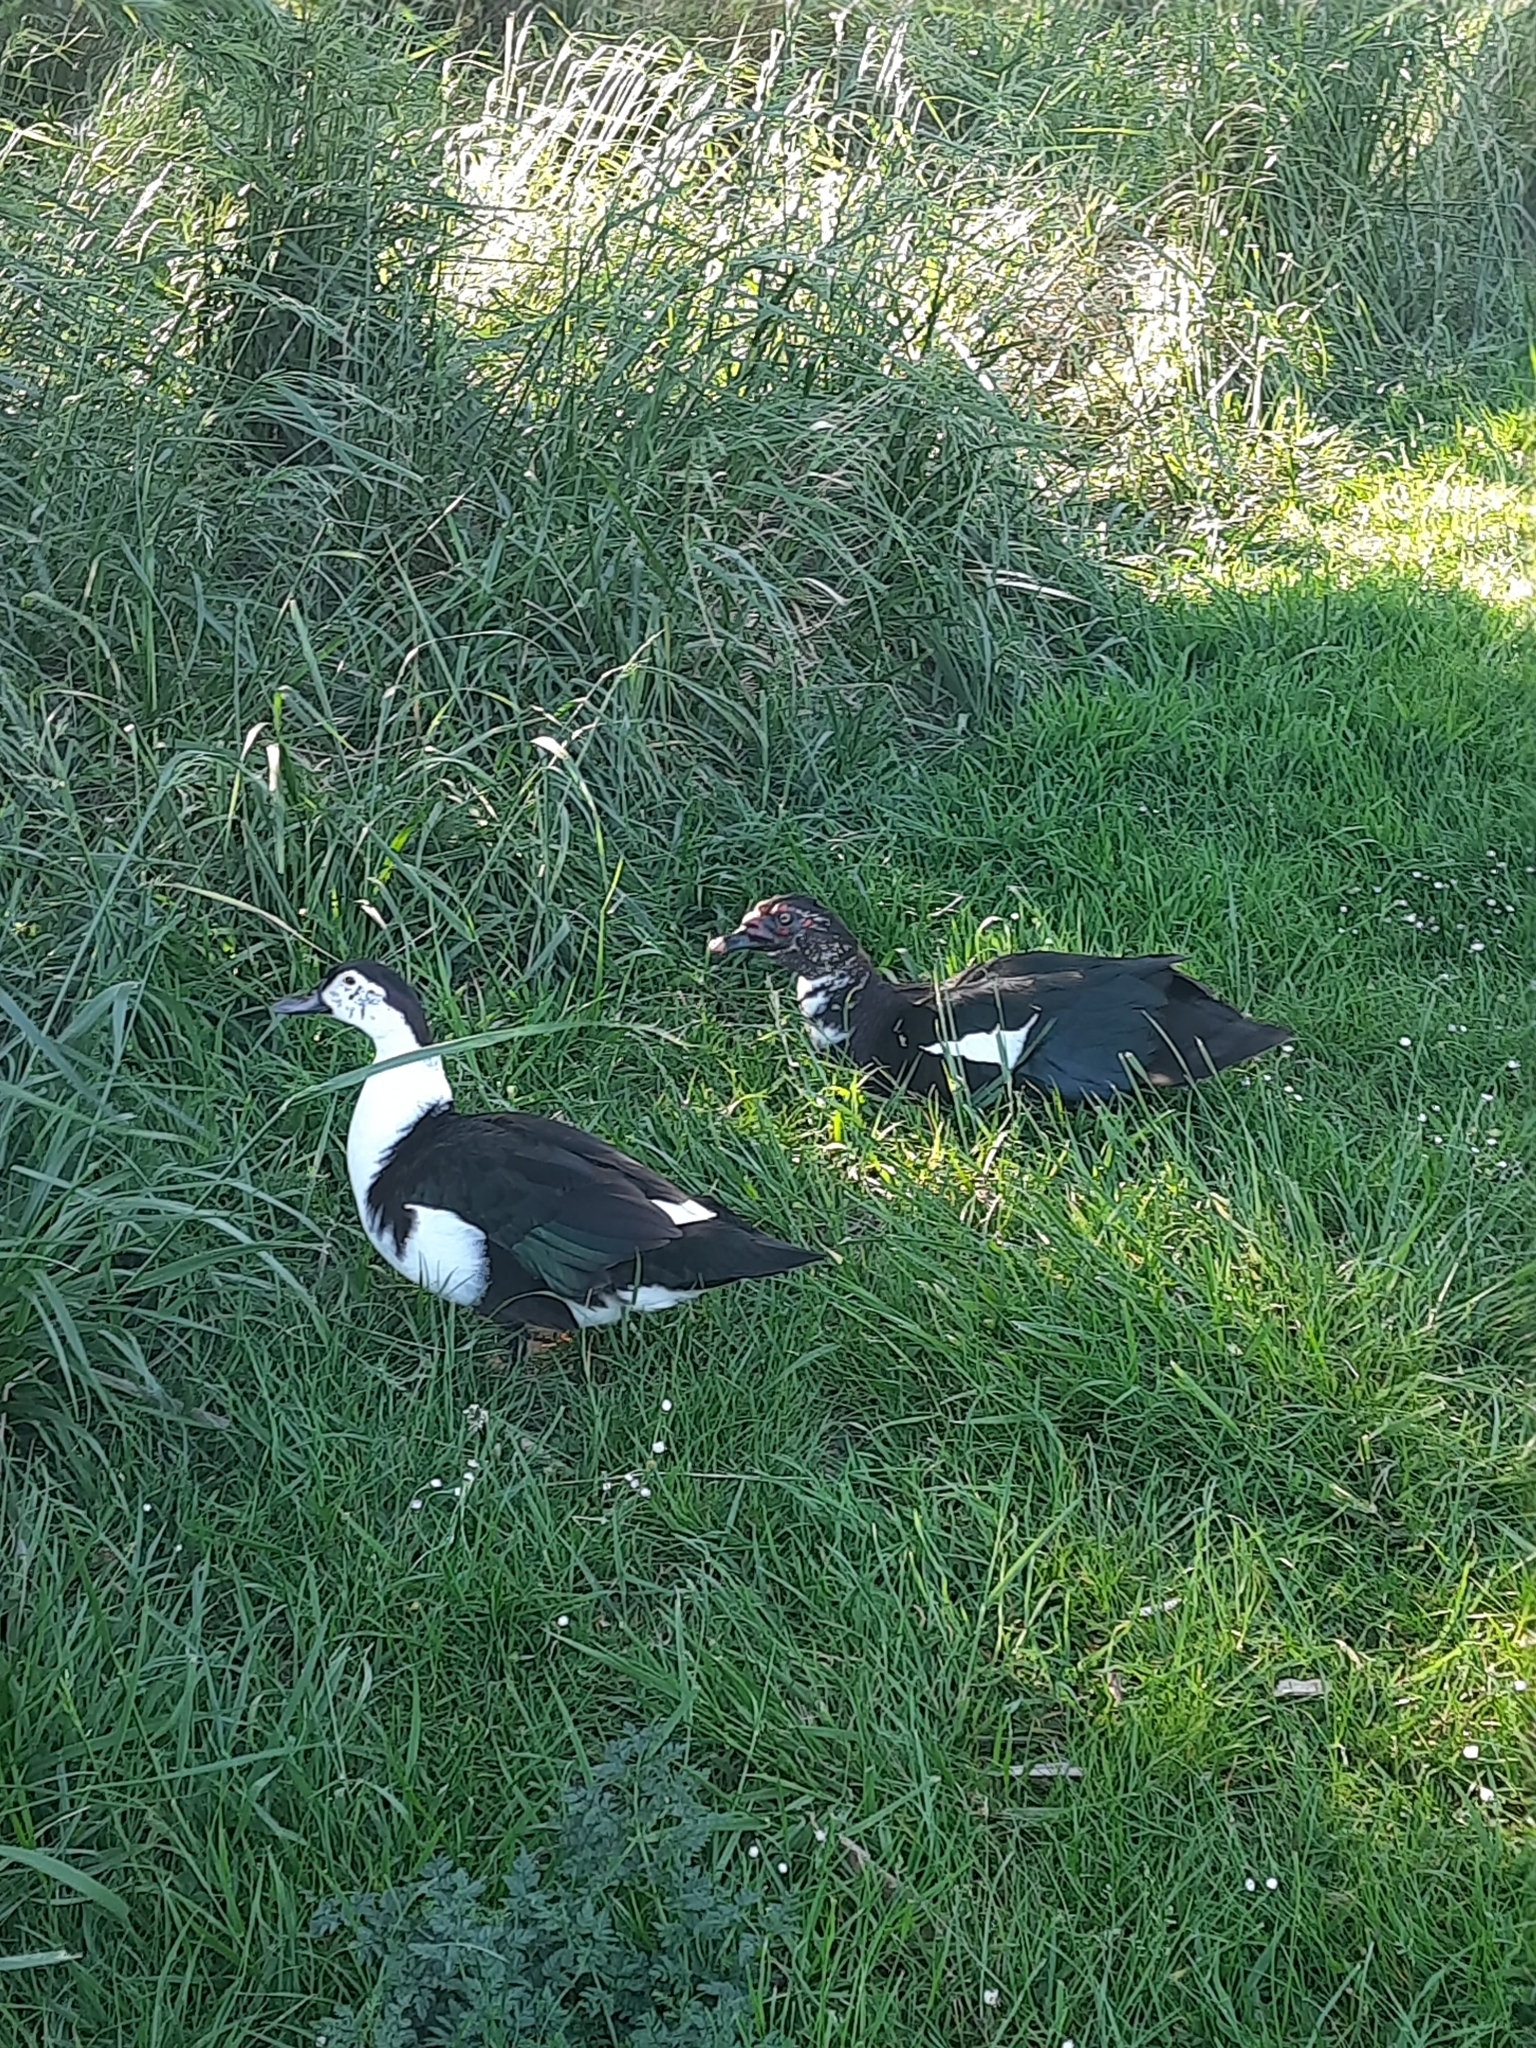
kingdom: Animalia
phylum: Chordata
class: Aves
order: Anseriformes
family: Anatidae
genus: Cairina
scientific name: Cairina moschata
